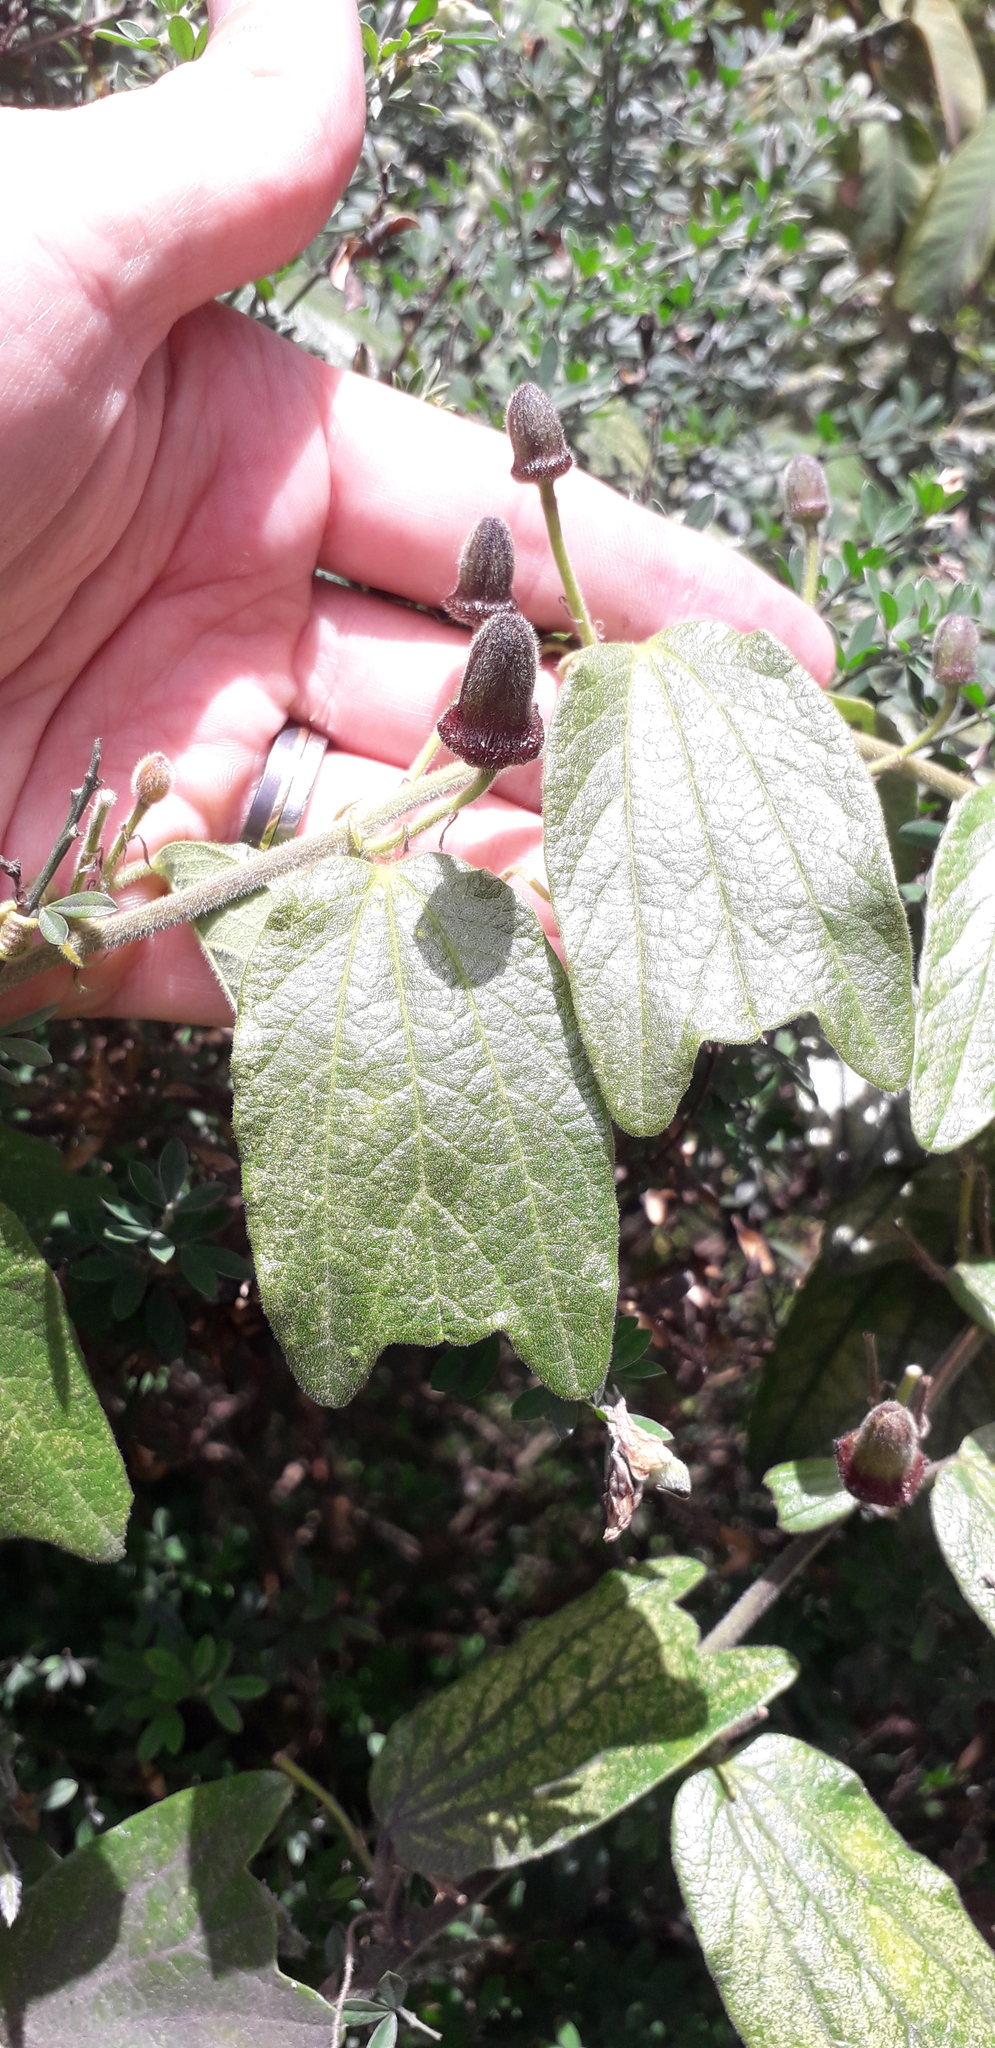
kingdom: Plantae
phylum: Tracheophyta
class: Magnoliopsida
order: Malpighiales
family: Passifloraceae
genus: Passiflora
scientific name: Passiflora bogotensis
